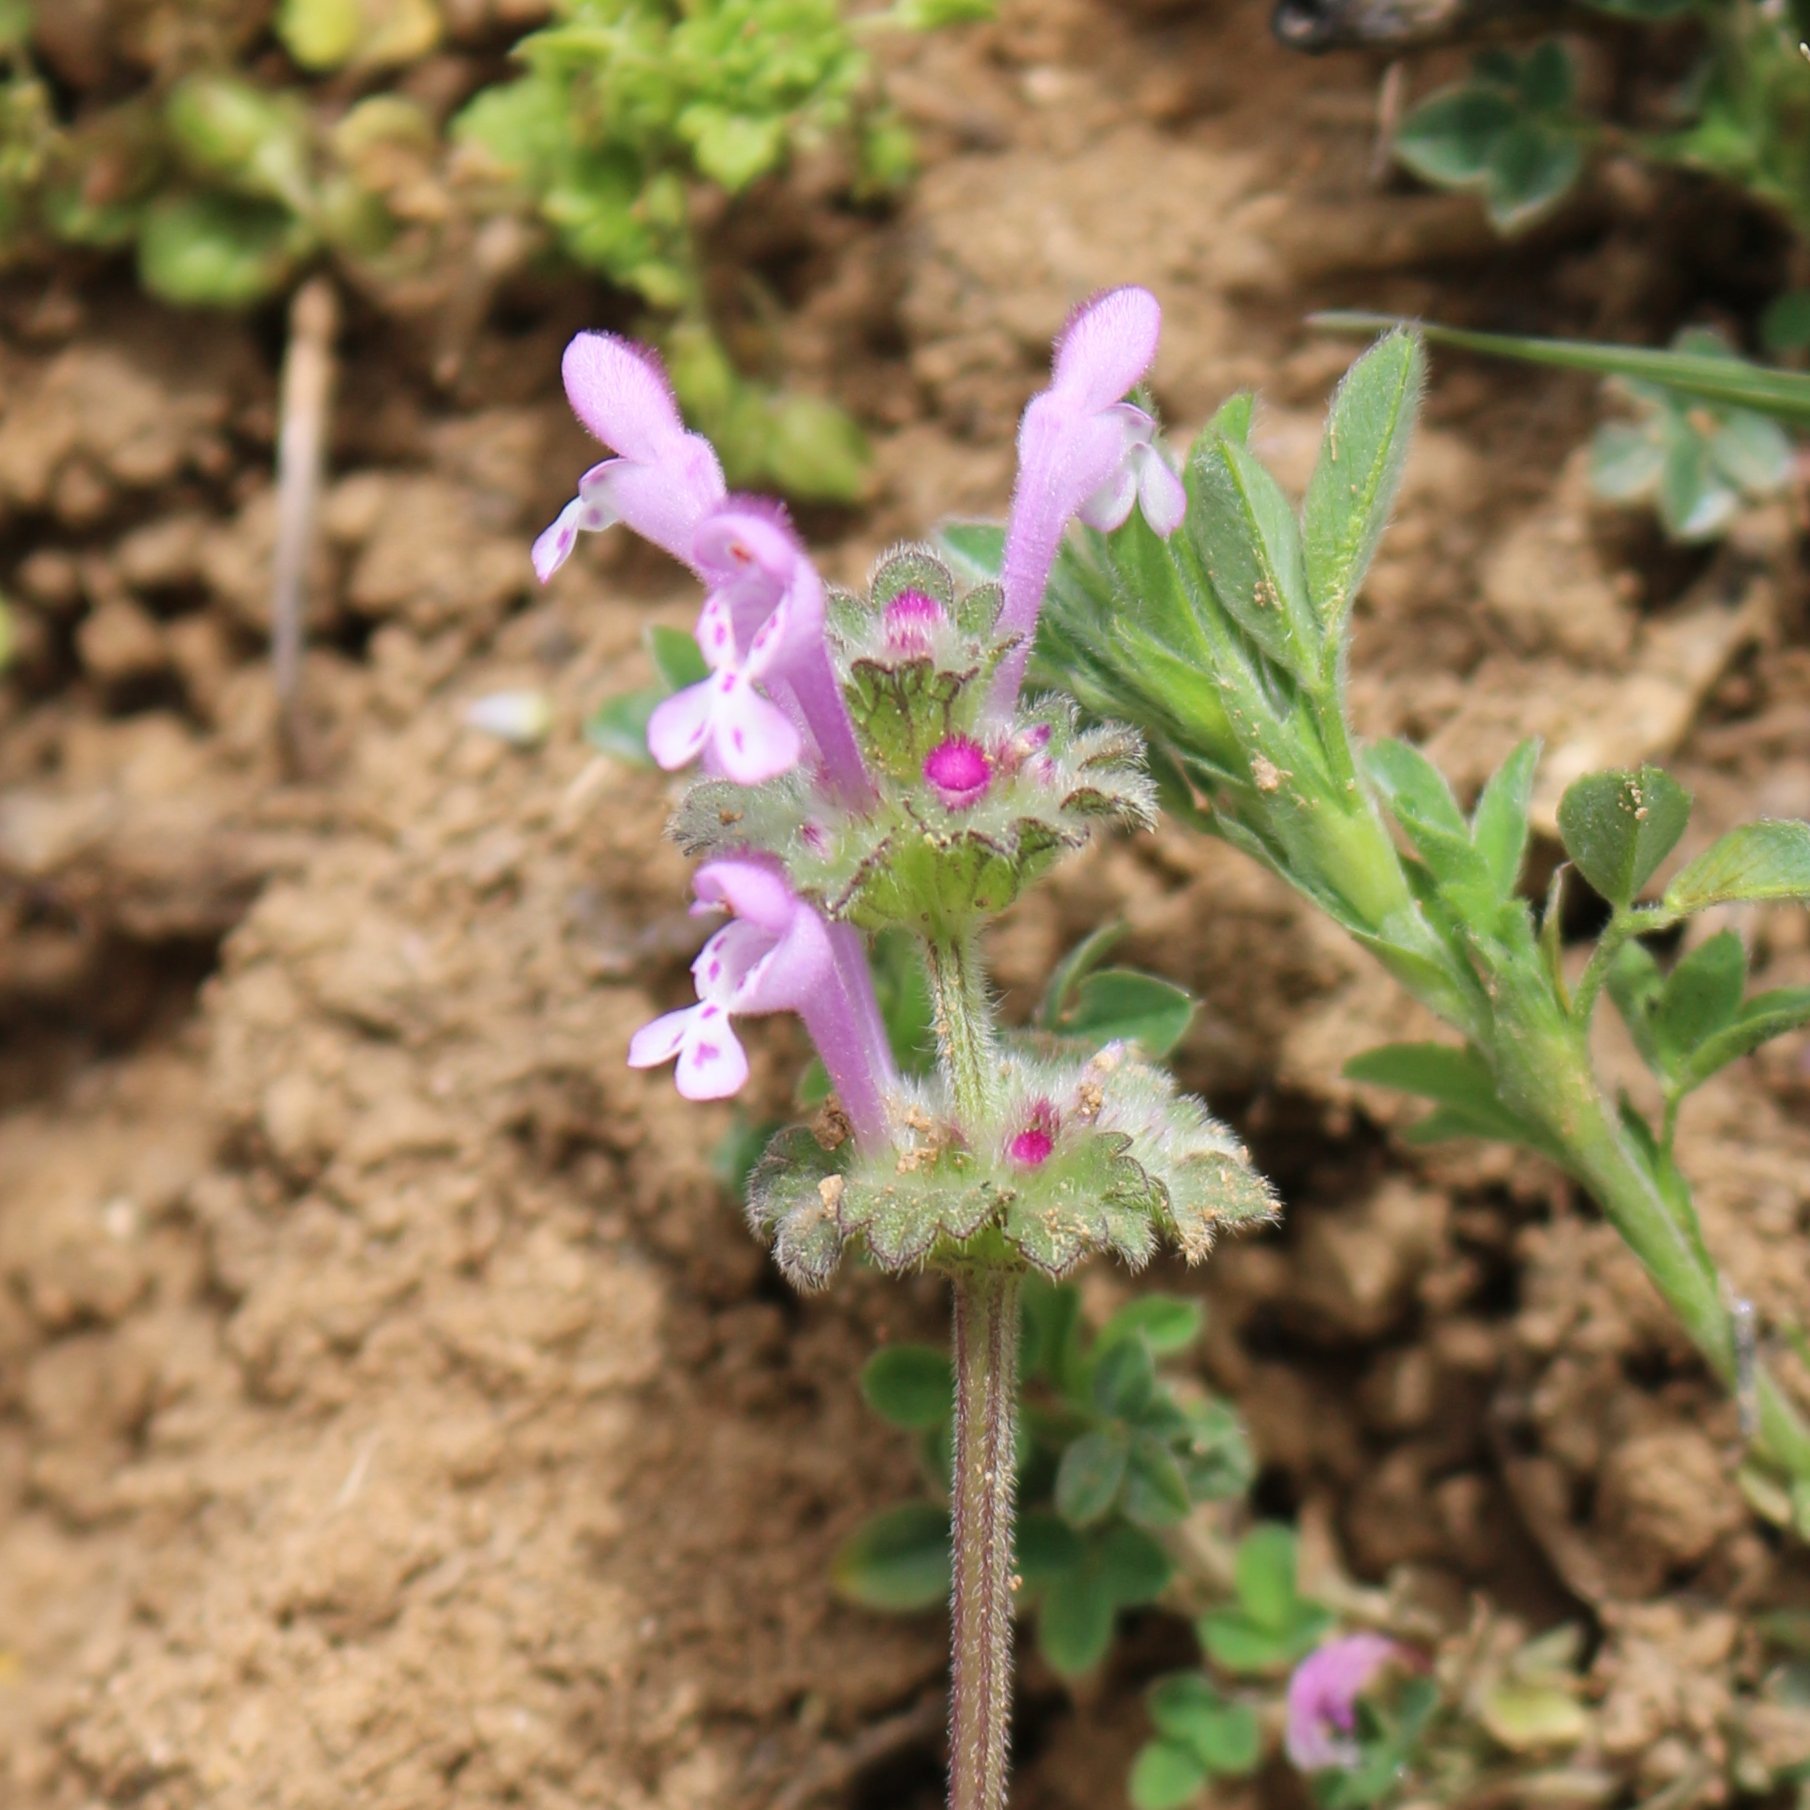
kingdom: Plantae
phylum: Tracheophyta
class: Magnoliopsida
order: Lamiales
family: Lamiaceae
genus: Lamium
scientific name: Lamium amplexicaule
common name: Henbit dead-nettle
